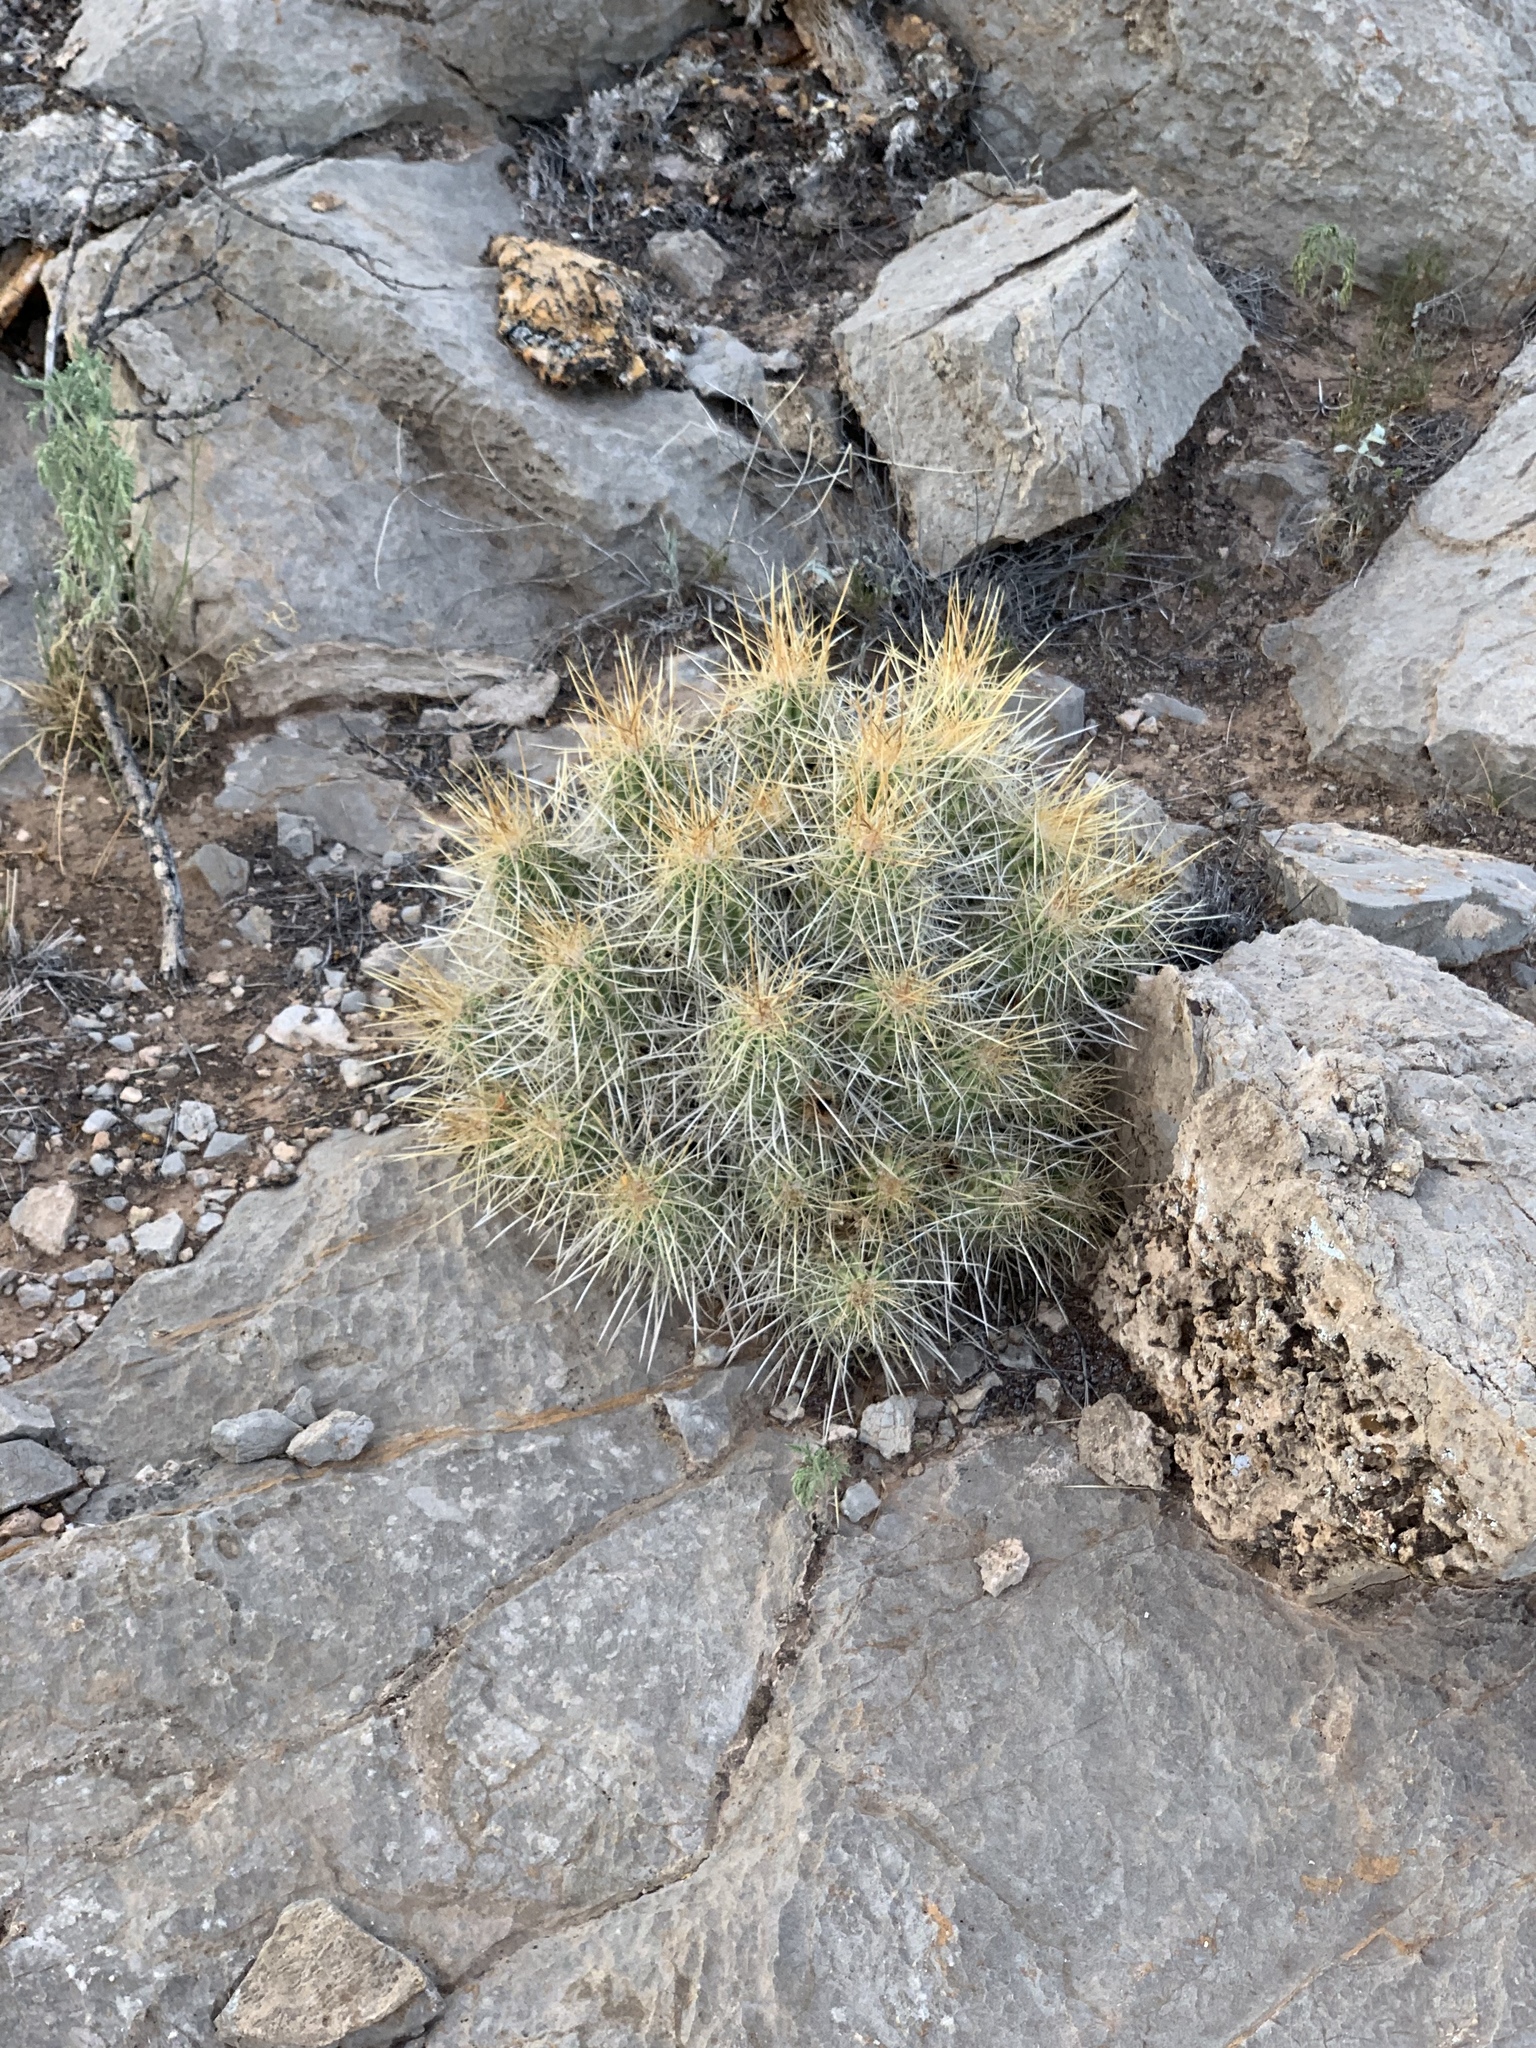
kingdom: Plantae
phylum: Tracheophyta
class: Magnoliopsida
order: Caryophyllales
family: Cactaceae
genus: Echinocereus
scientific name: Echinocereus stramineus
